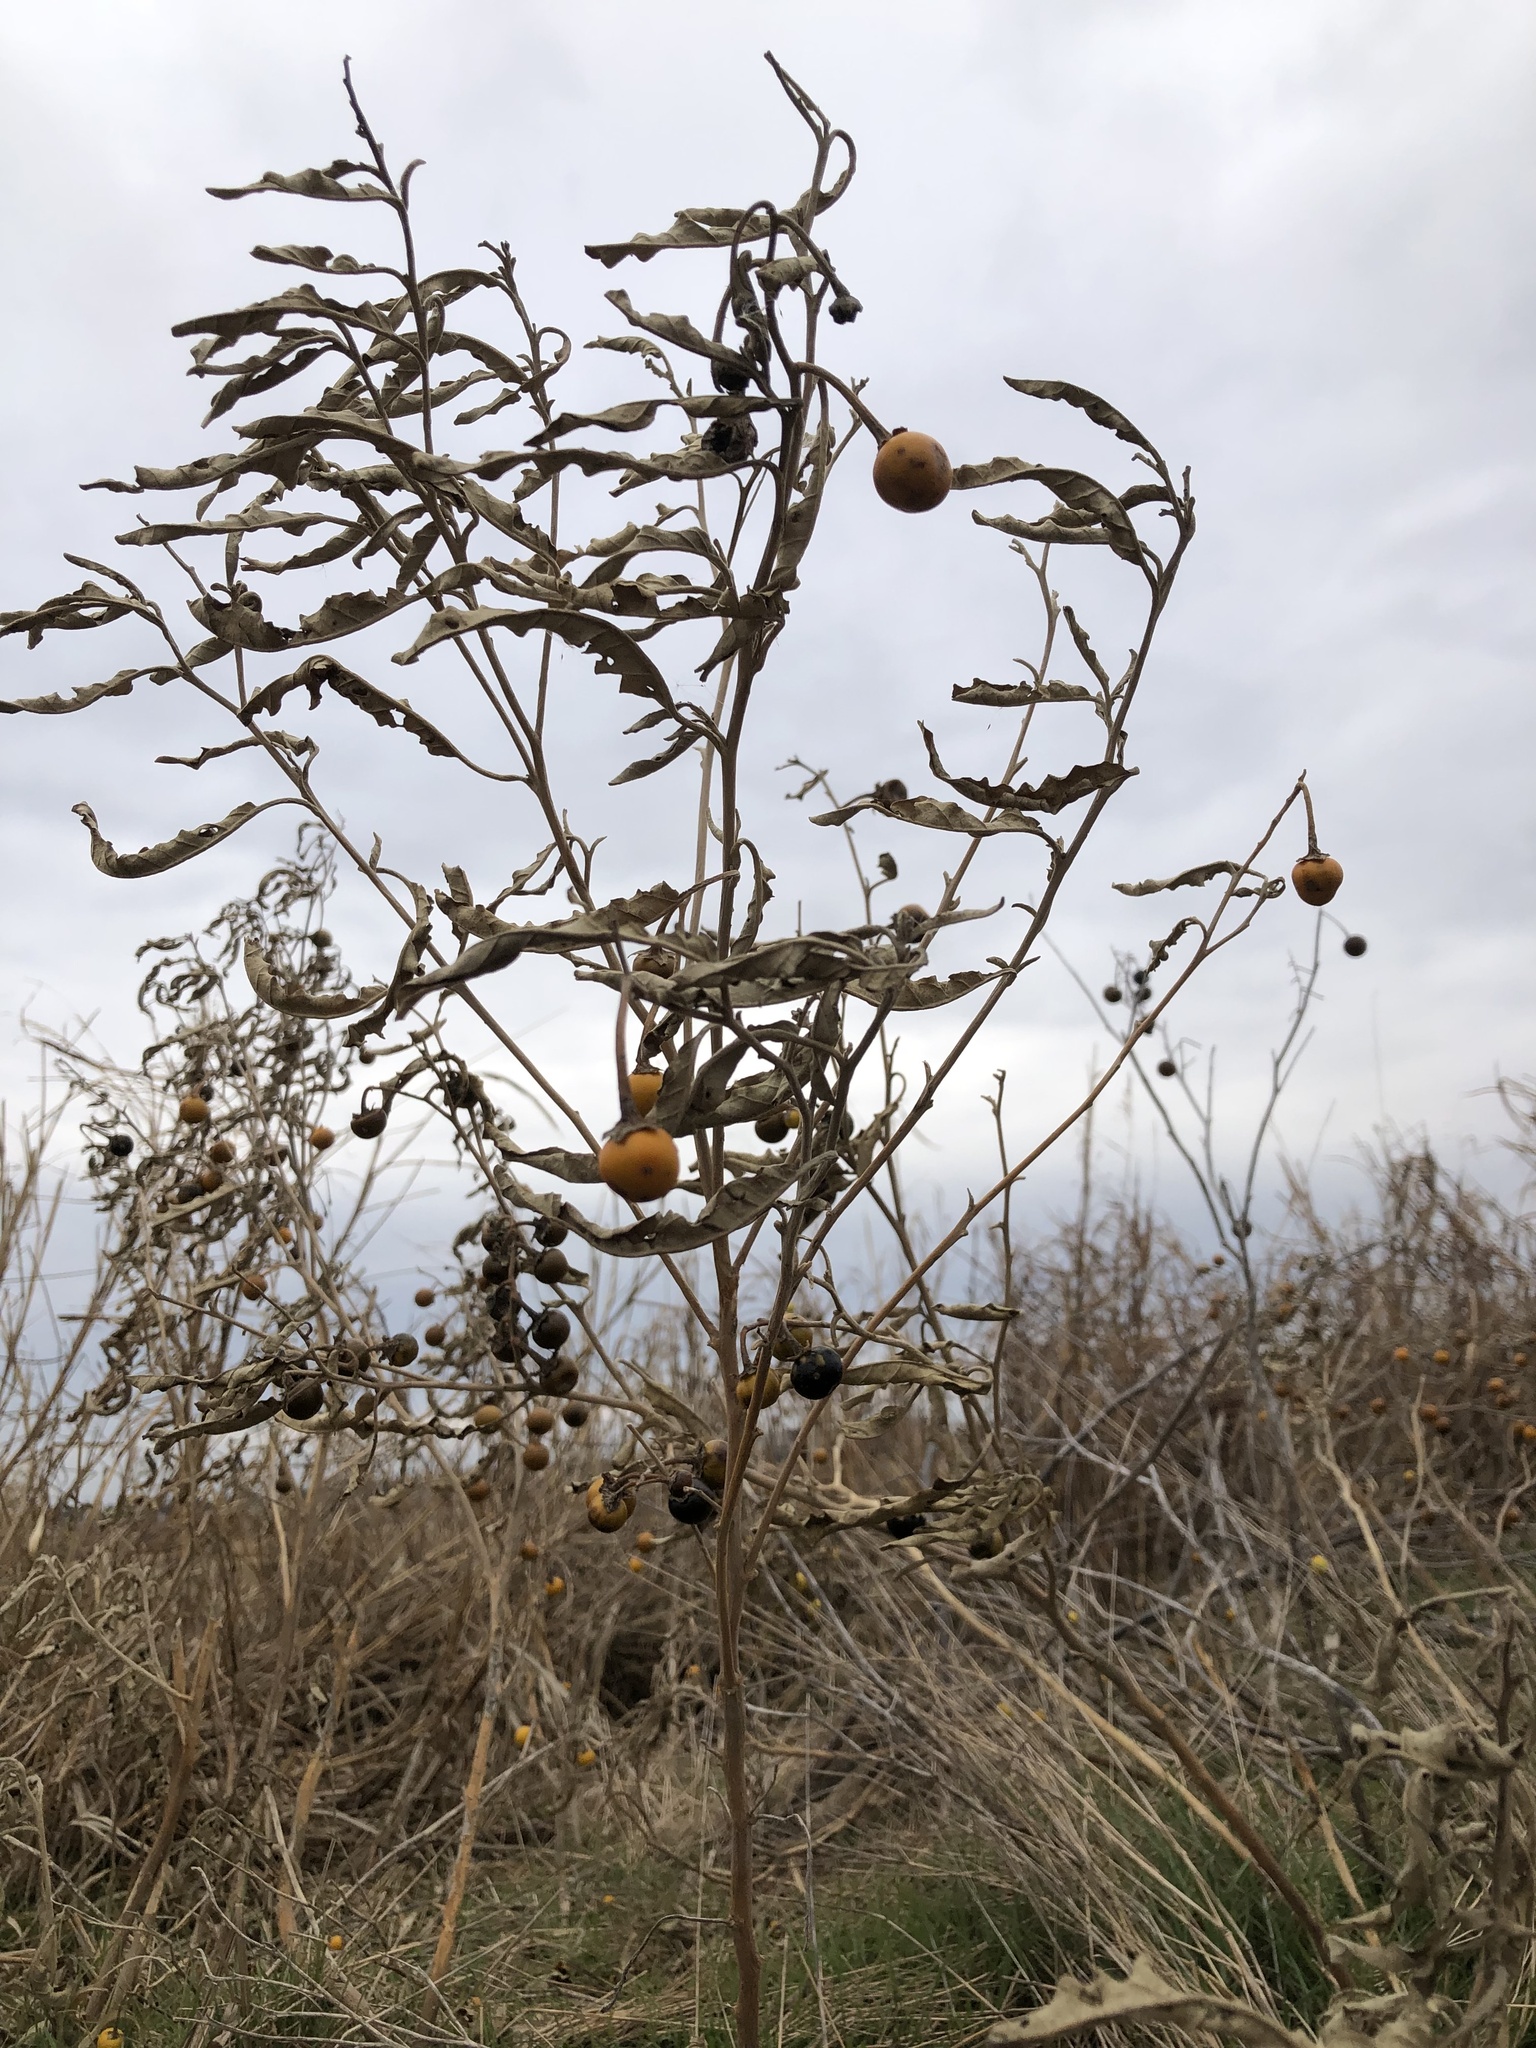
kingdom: Plantae
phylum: Tracheophyta
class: Magnoliopsida
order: Solanales
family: Solanaceae
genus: Solanum
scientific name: Solanum elaeagnifolium
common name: Silverleaf nightshade
